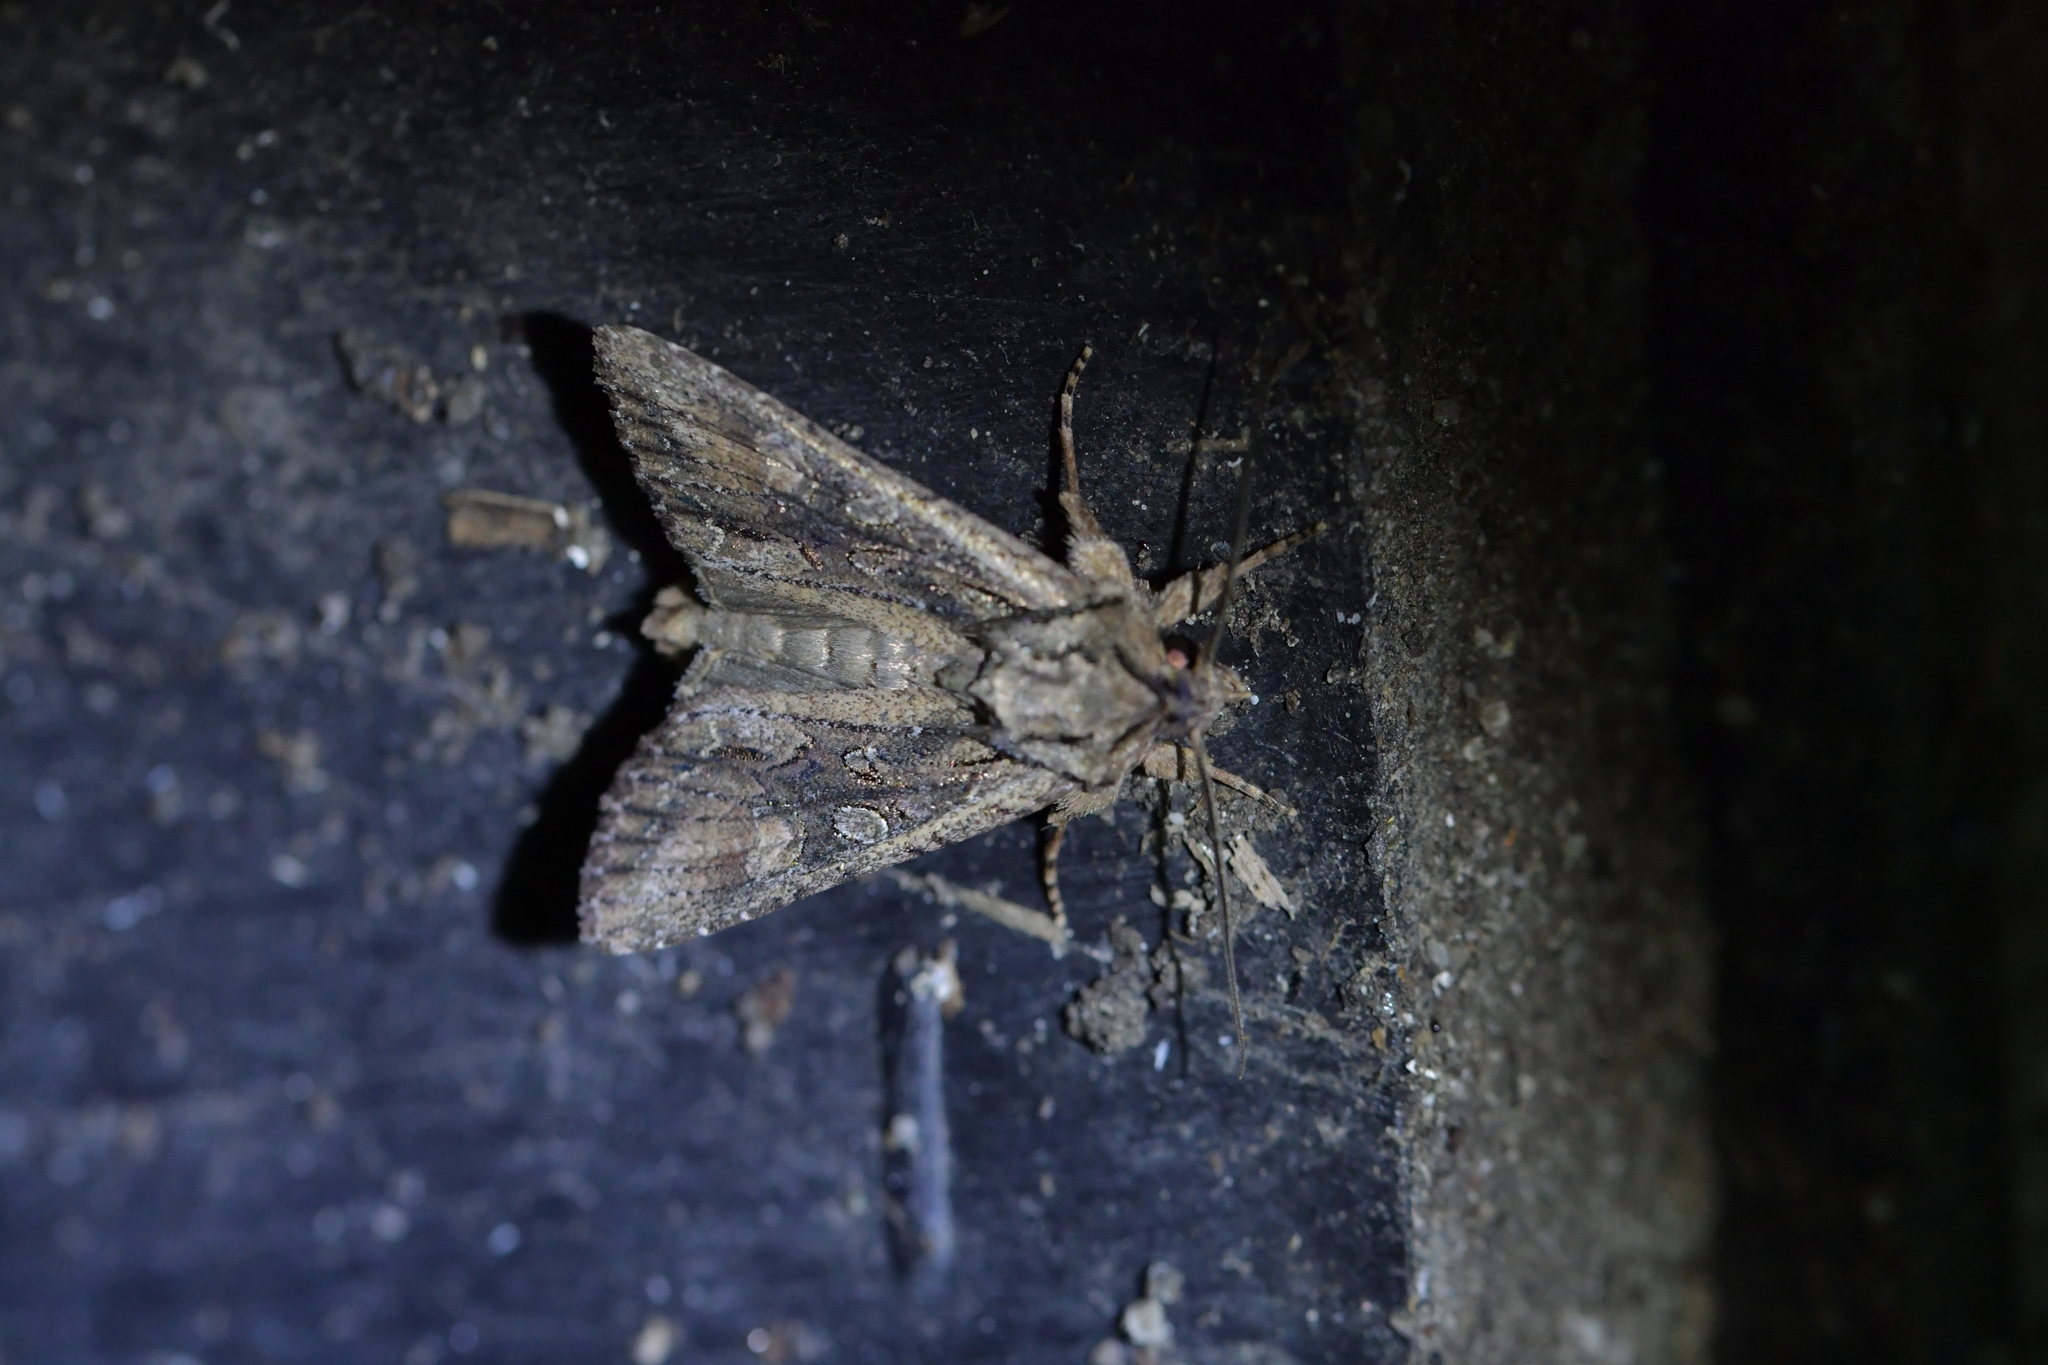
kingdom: Animalia
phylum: Arthropoda
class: Insecta
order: Lepidoptera
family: Noctuidae
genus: Ichneutica
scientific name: Ichneutica mutans
